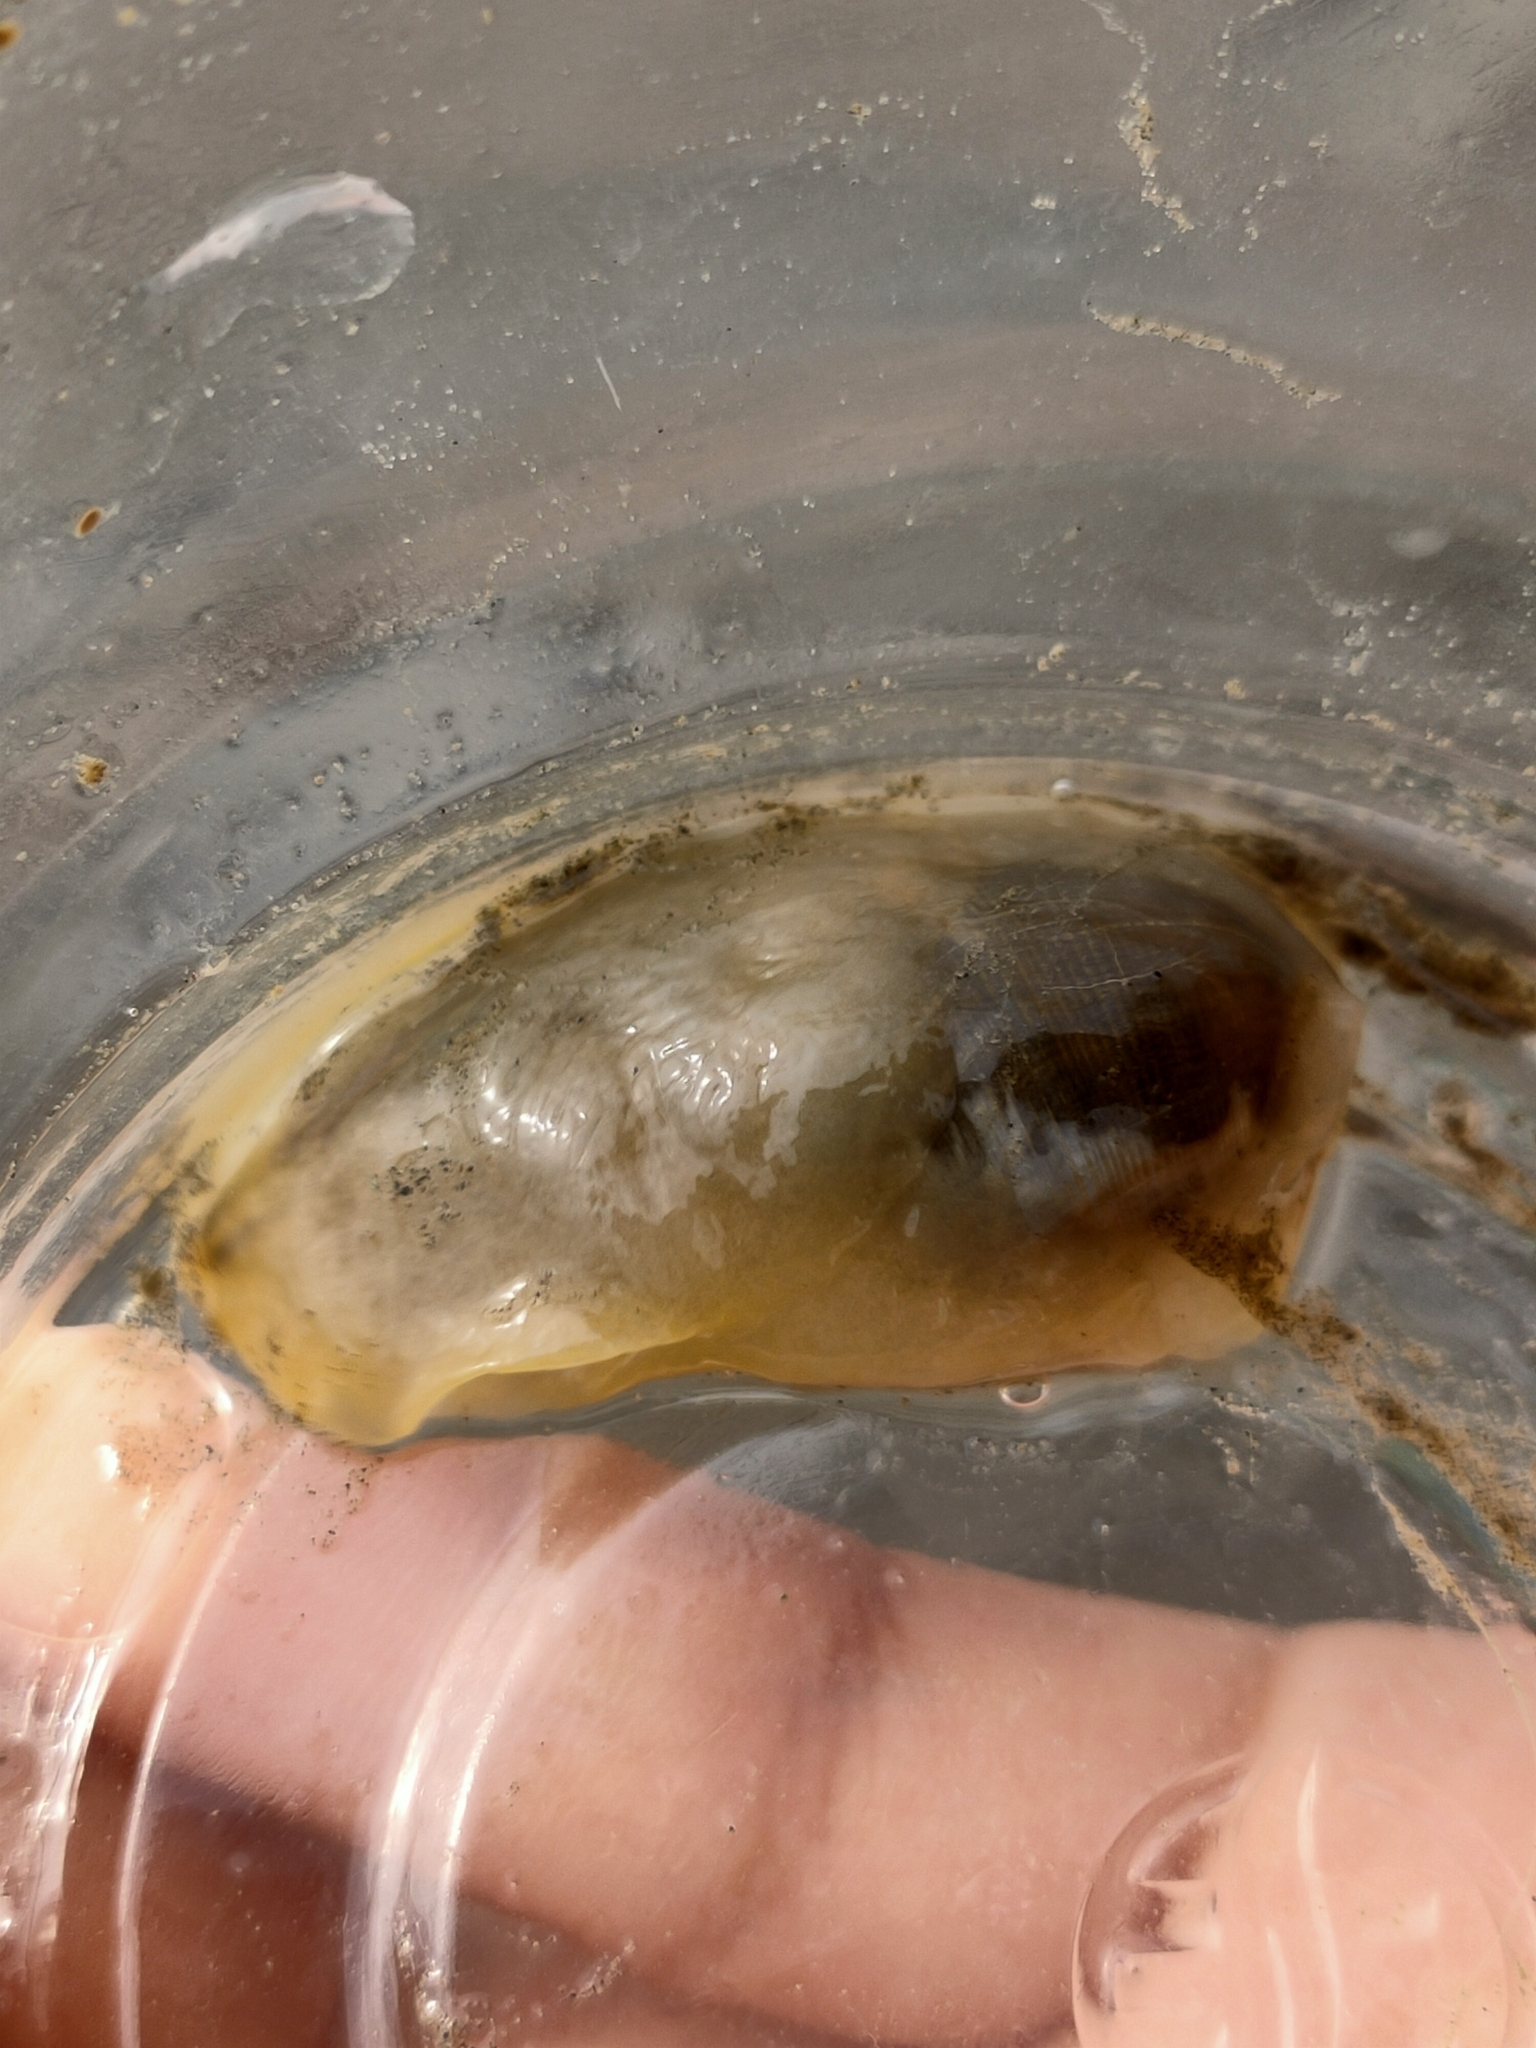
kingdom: Animalia
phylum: Mollusca
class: Gastropoda
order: Cephalaspidea
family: Haminoeidae
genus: Bullacta
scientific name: Bullacta caurina
